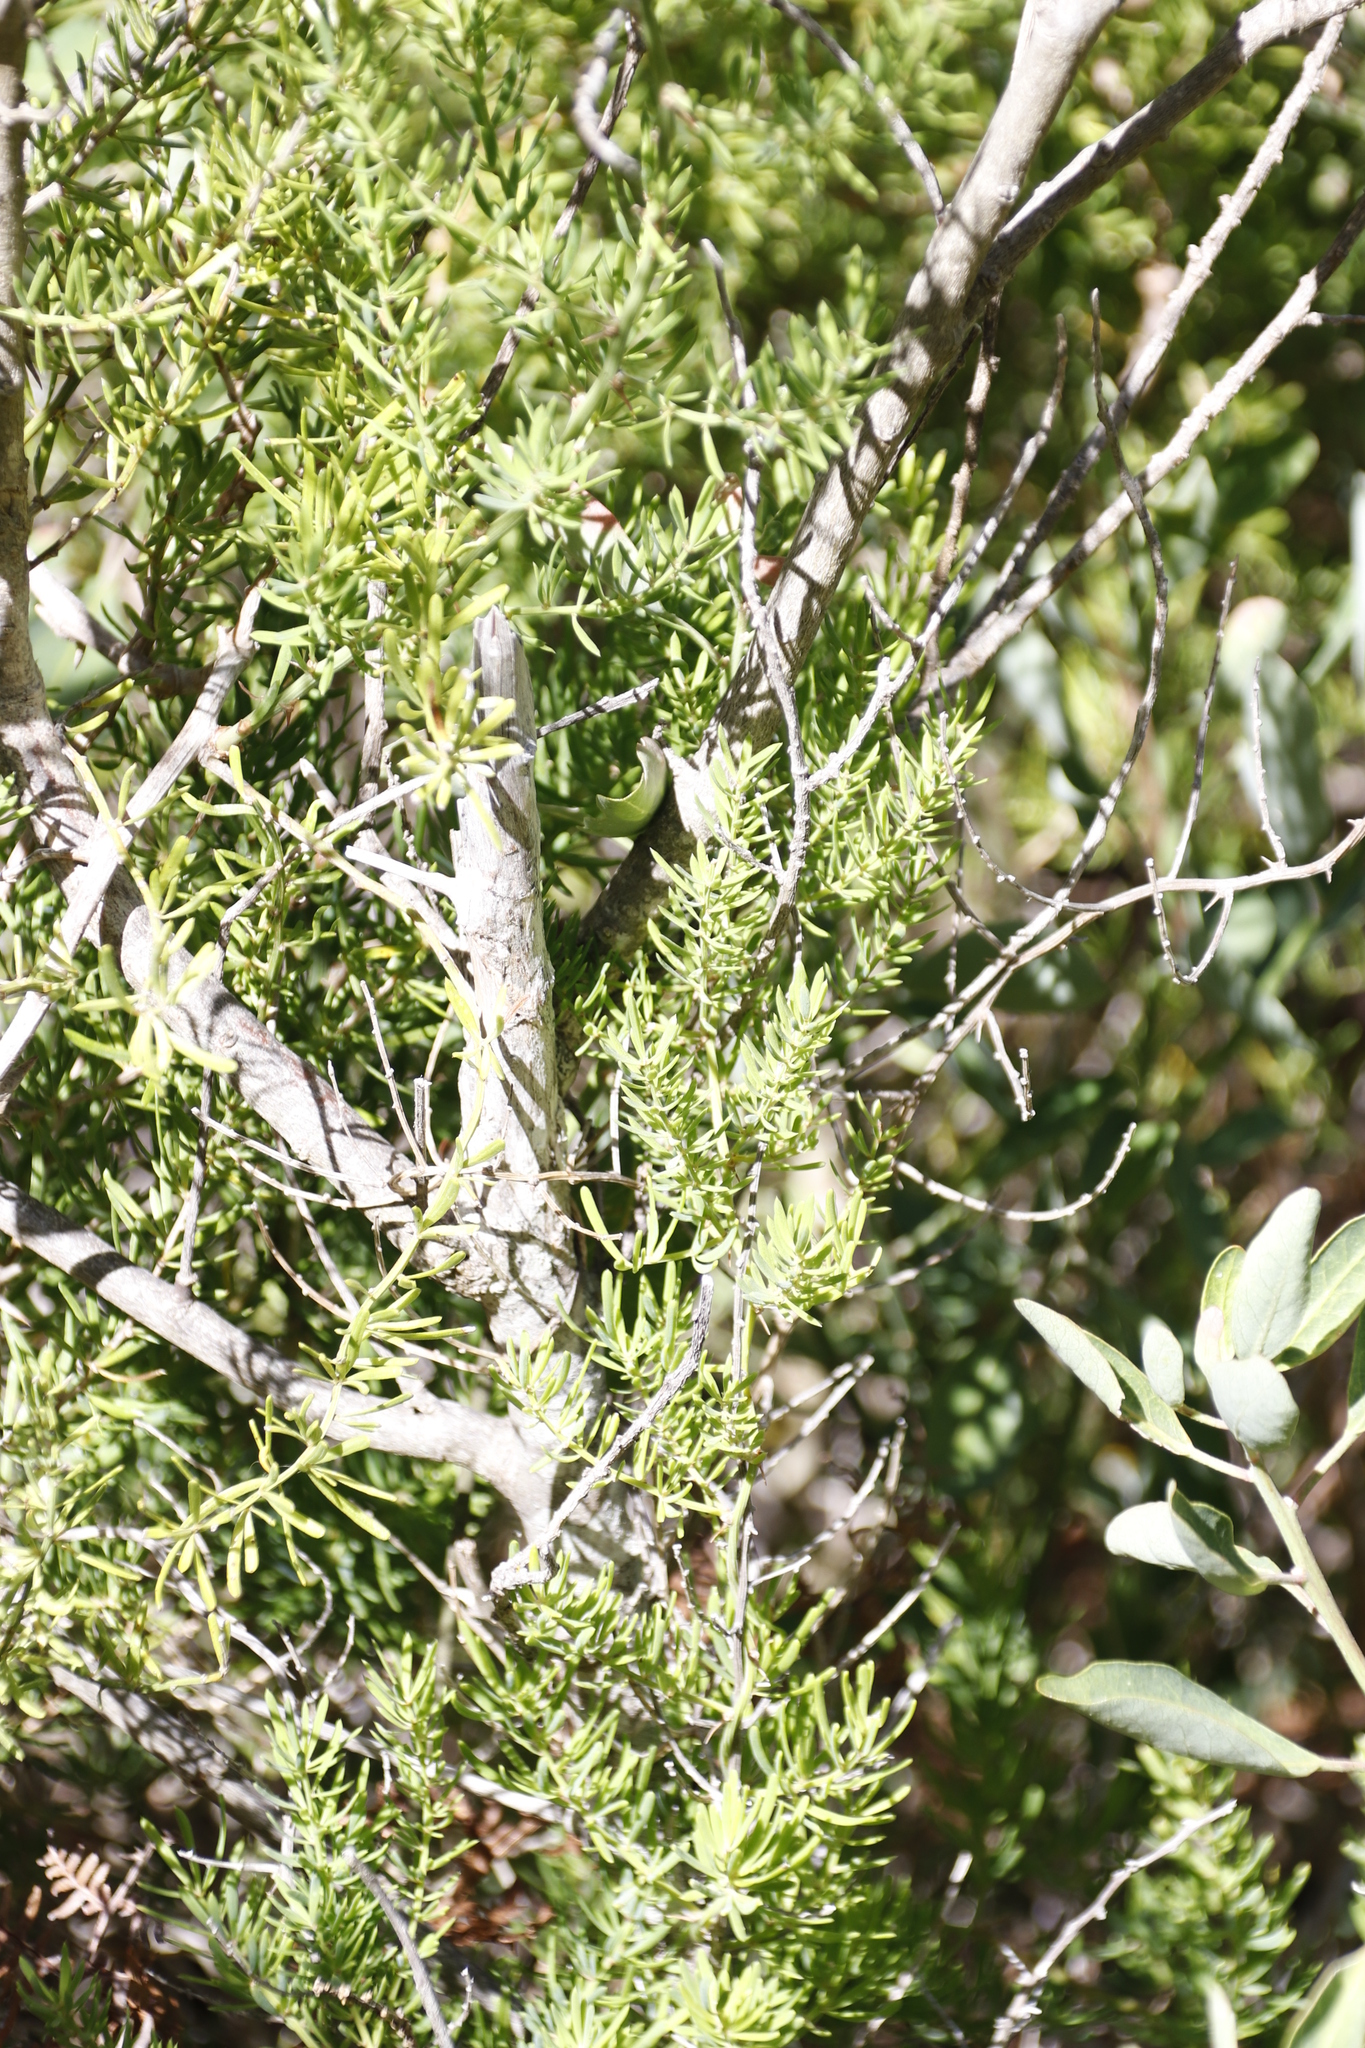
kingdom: Plantae
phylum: Tracheophyta
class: Liliopsida
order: Asparagales
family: Asparagaceae
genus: Asparagus
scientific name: Asparagus africanus
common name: Asparagus-fern
